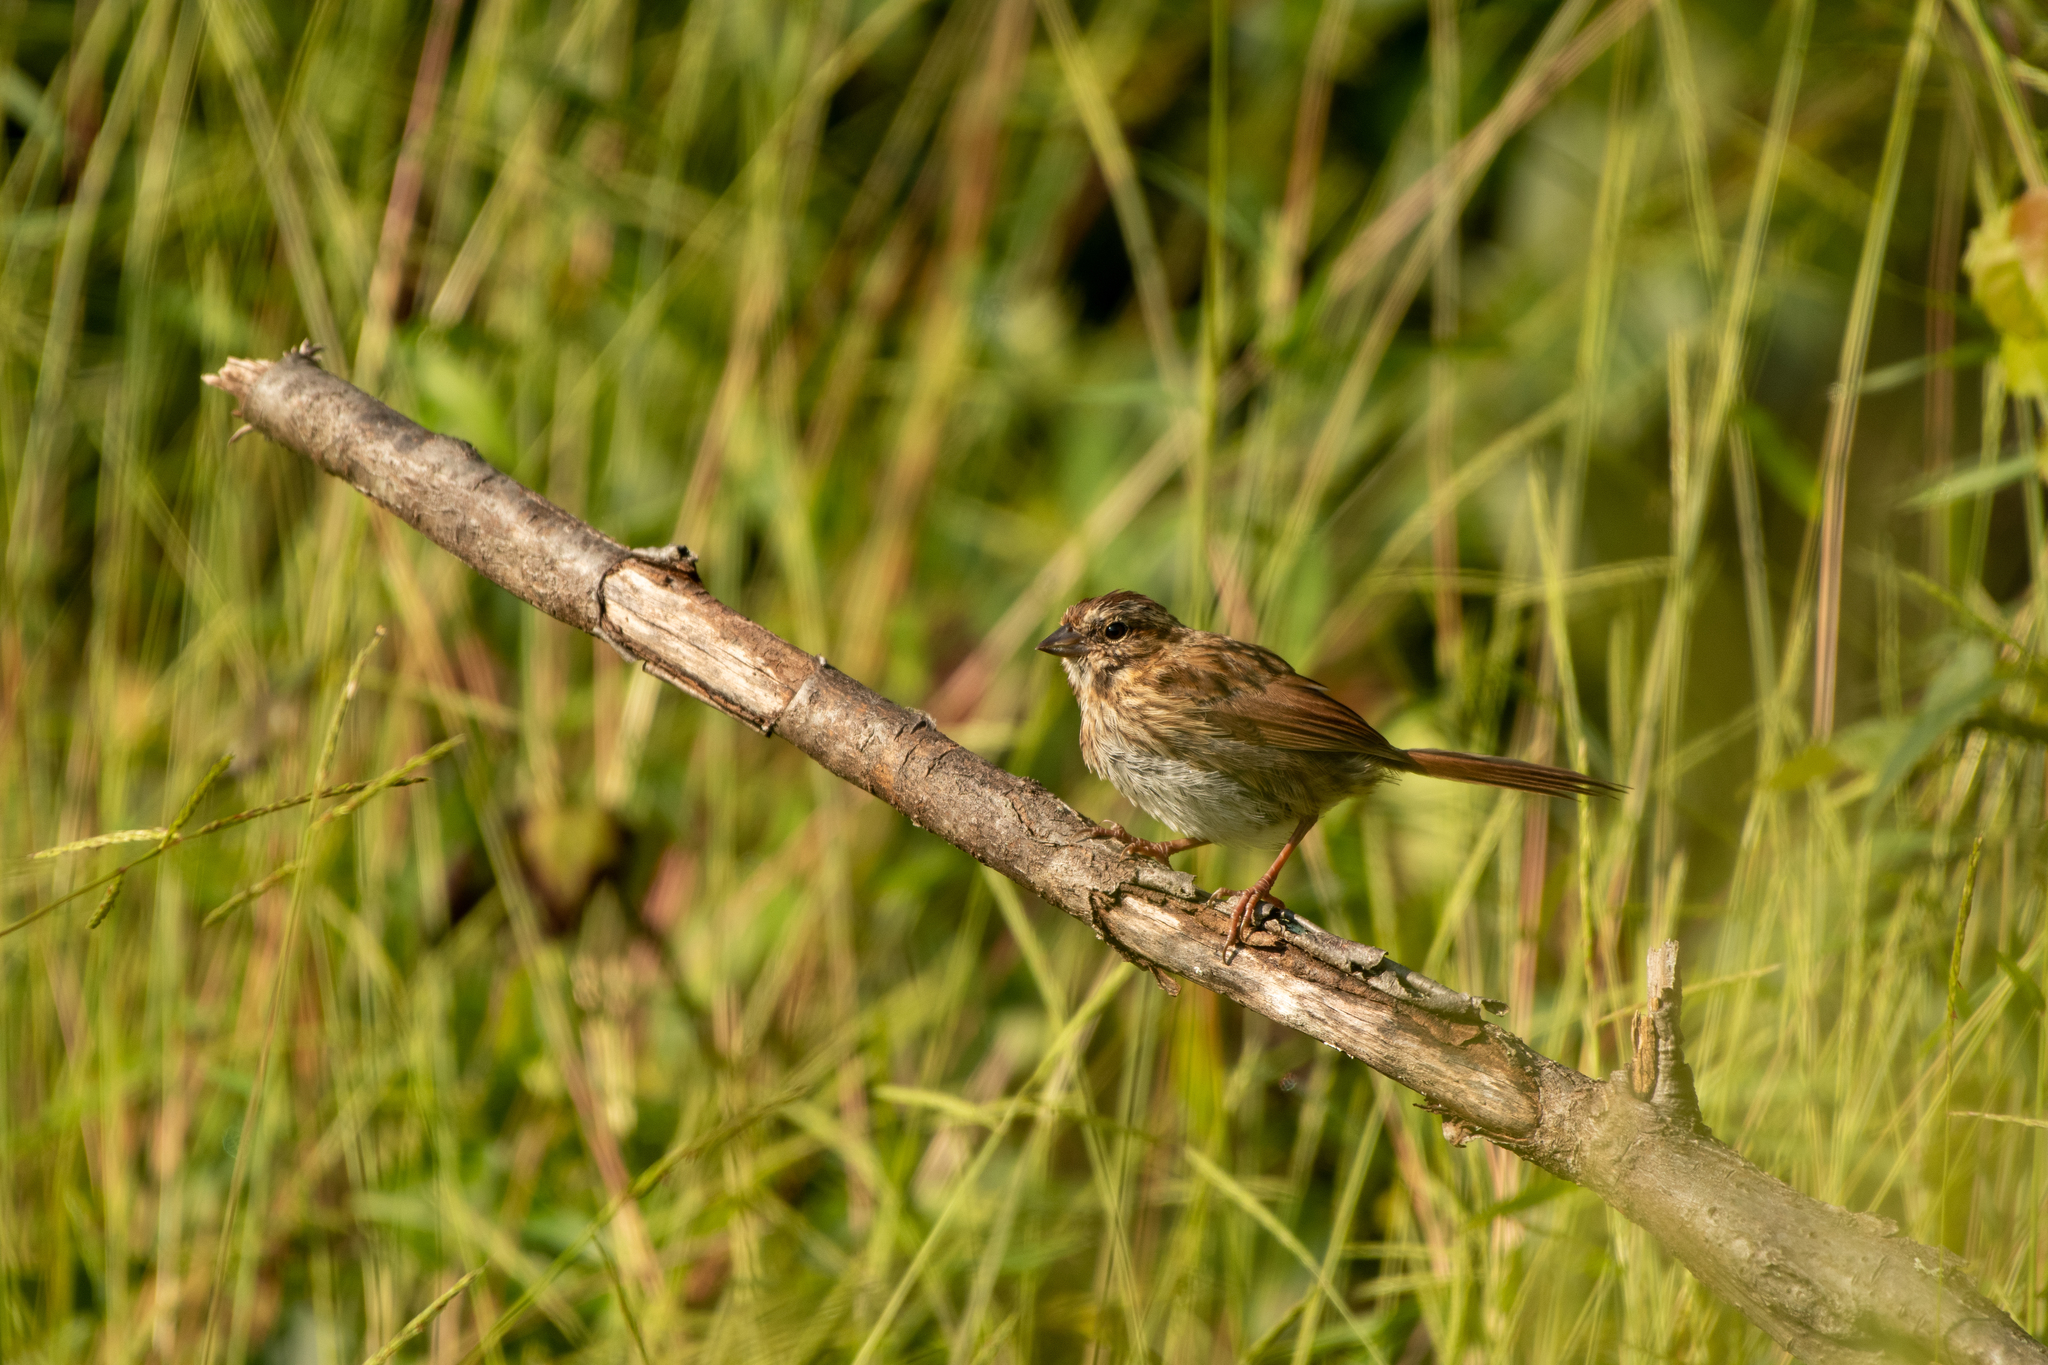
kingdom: Animalia
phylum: Chordata
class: Aves
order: Passeriformes
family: Passerellidae
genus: Melospiza
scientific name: Melospiza melodia
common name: Song sparrow
